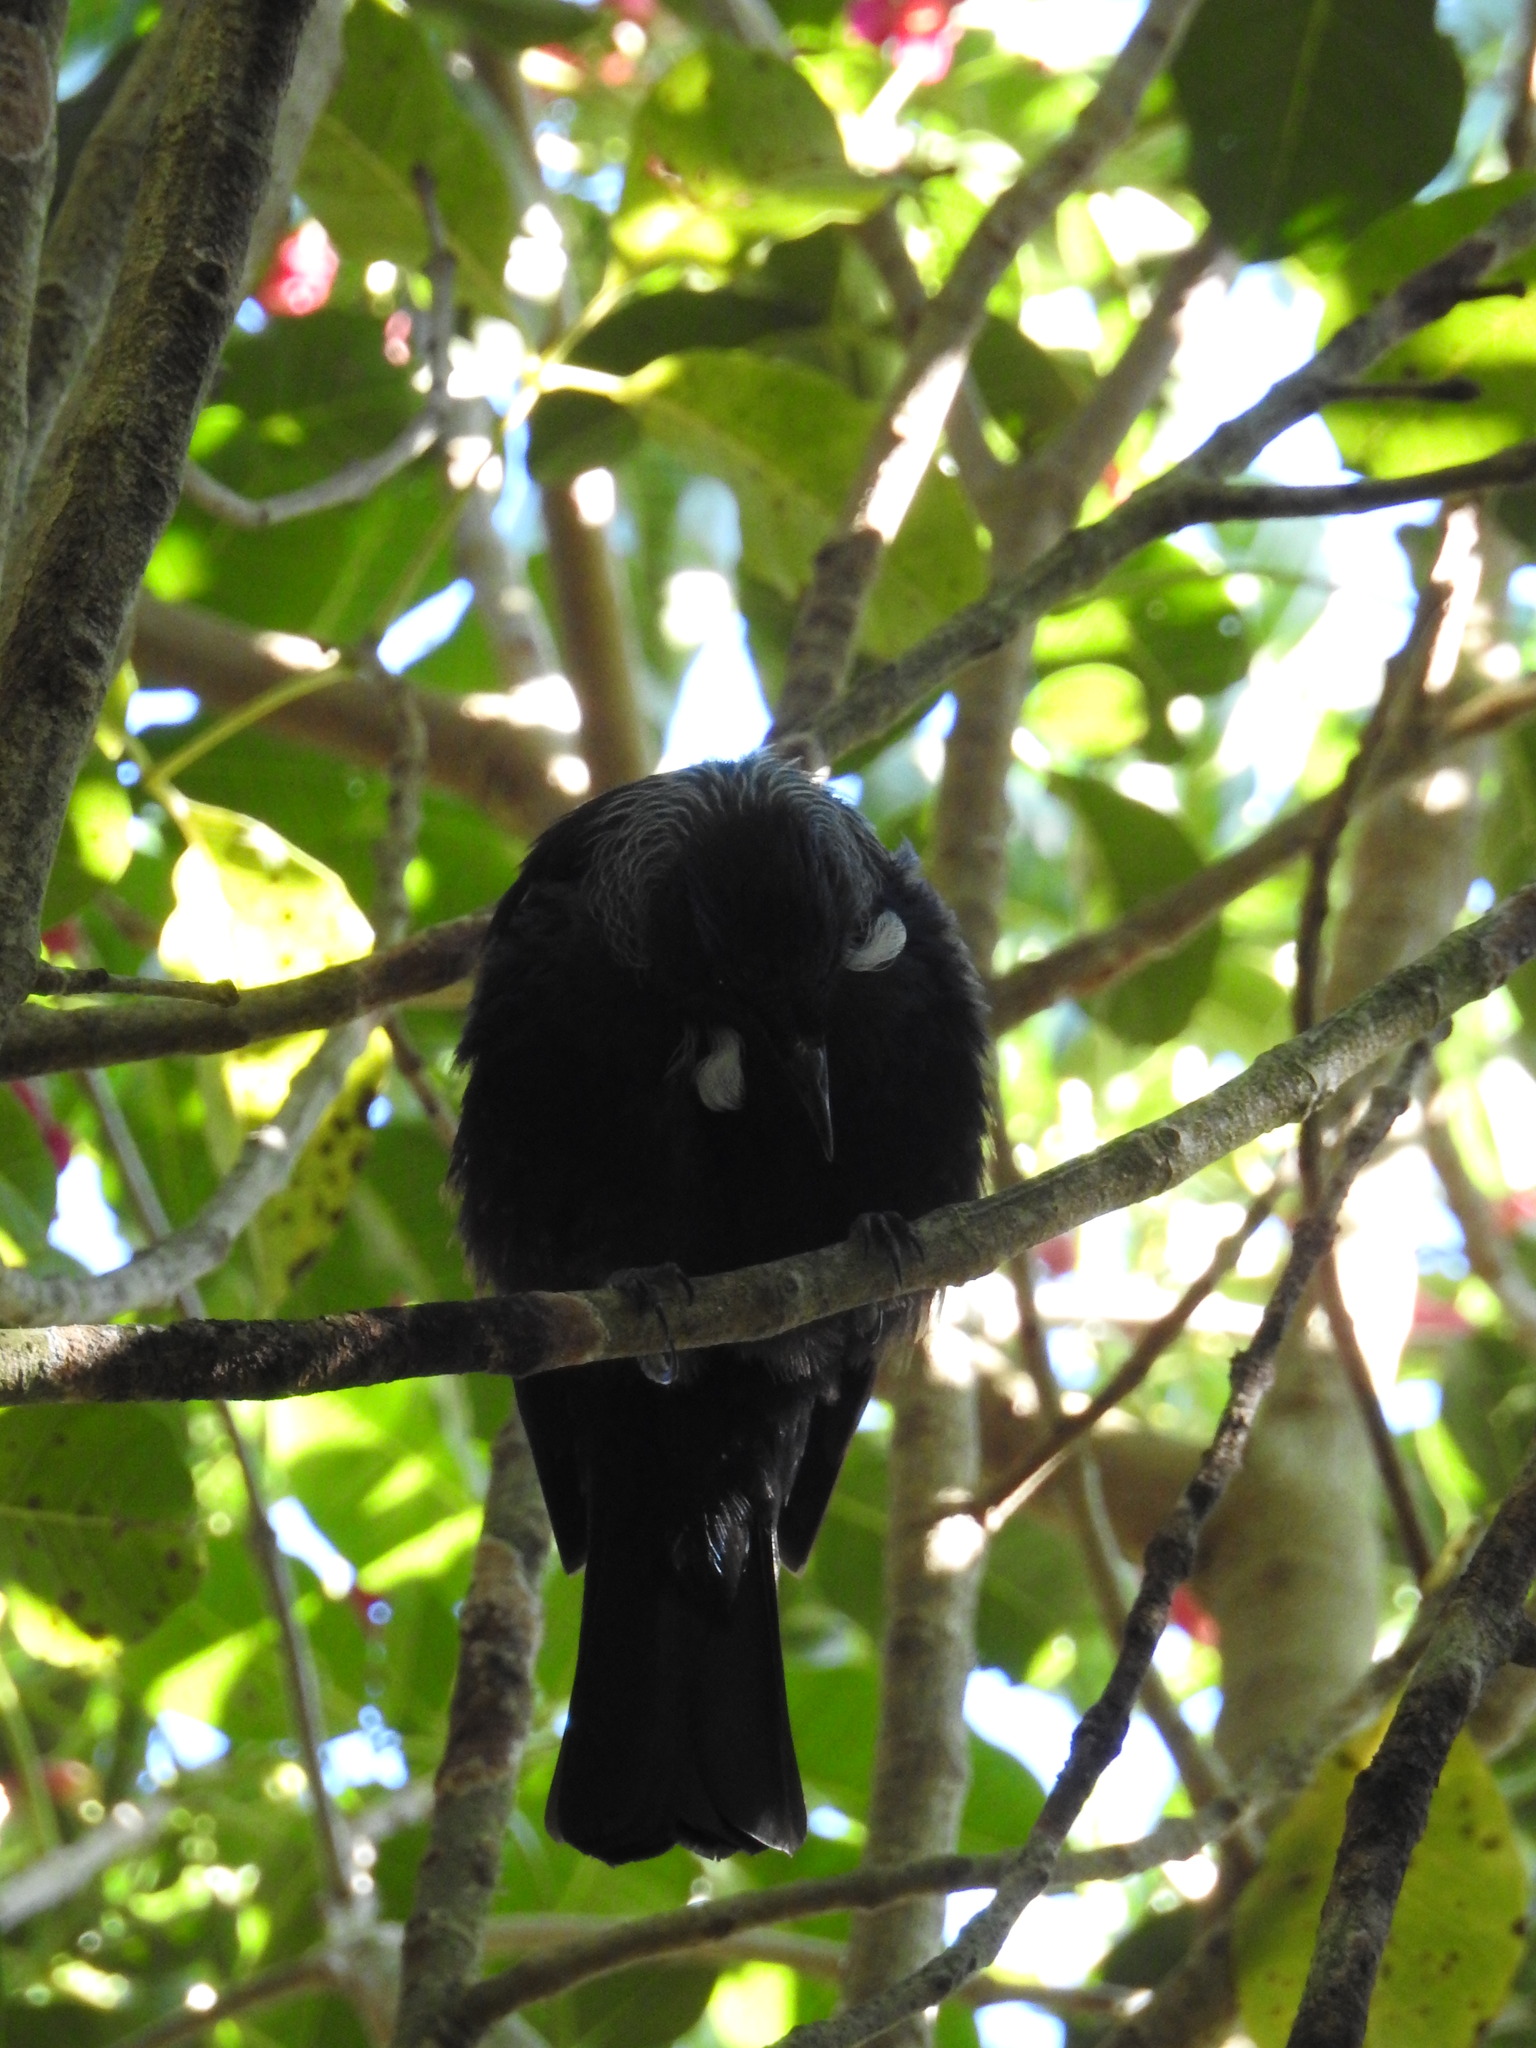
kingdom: Animalia
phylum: Chordata
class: Aves
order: Passeriformes
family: Meliphagidae
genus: Prosthemadera
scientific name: Prosthemadera novaeseelandiae
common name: Tui
